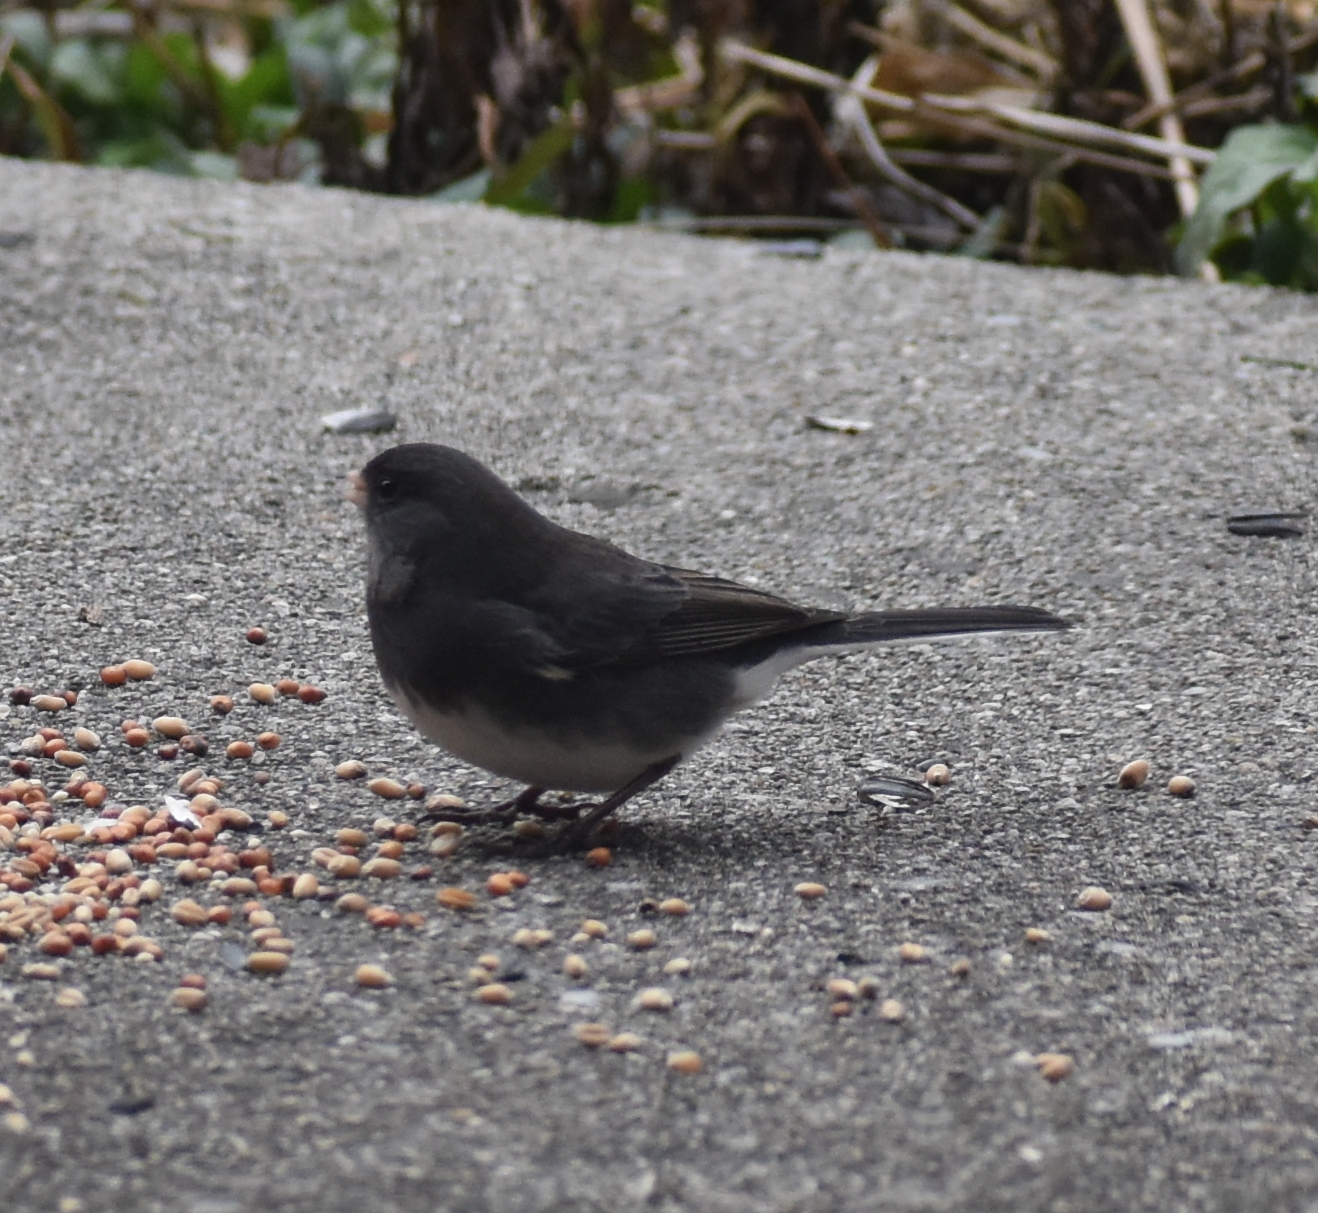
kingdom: Animalia
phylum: Chordata
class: Aves
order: Passeriformes
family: Passerellidae
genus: Junco
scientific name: Junco hyemalis
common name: Dark-eyed junco
